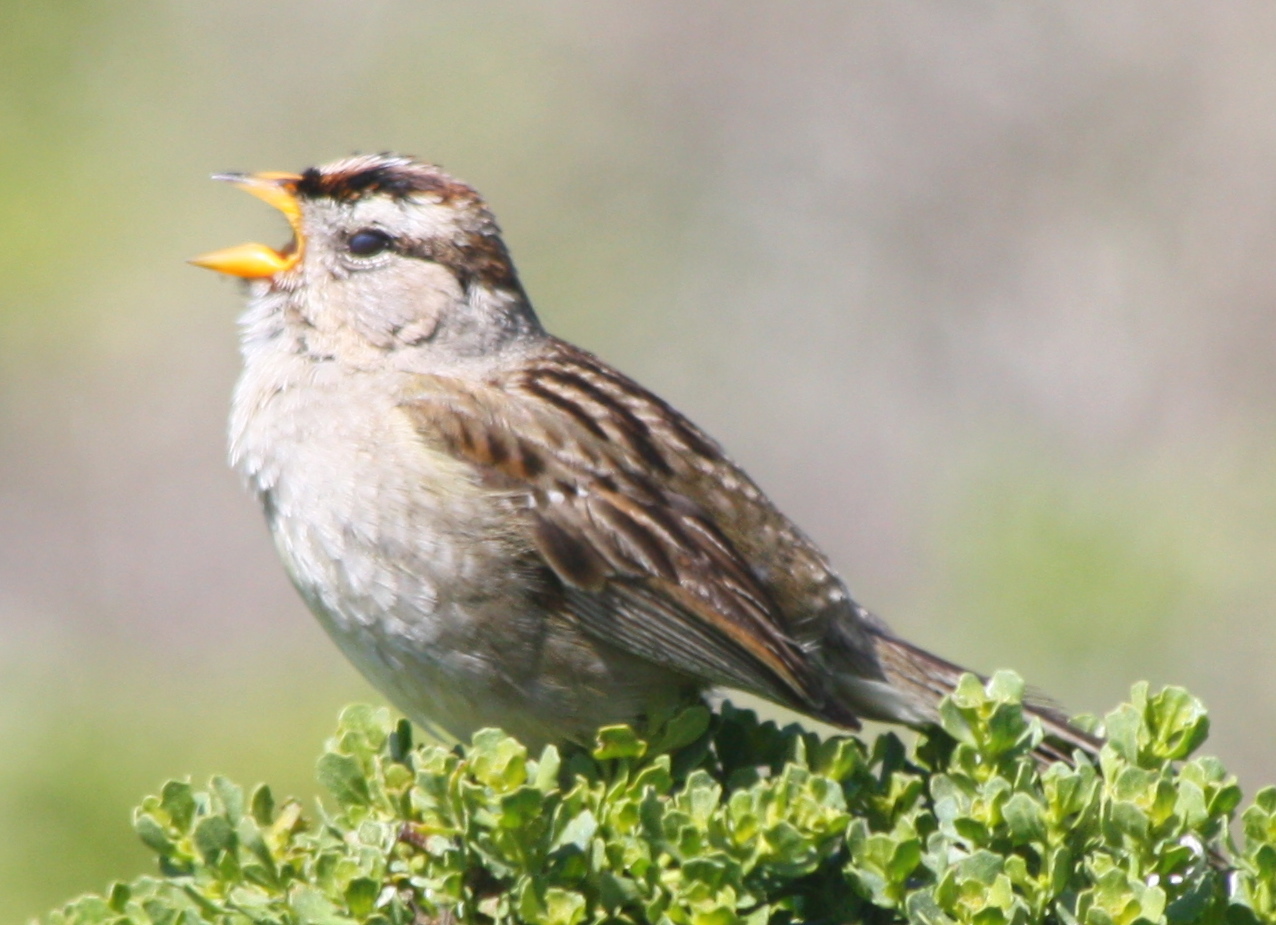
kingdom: Animalia
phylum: Chordata
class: Aves
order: Passeriformes
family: Passerellidae
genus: Zonotrichia
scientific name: Zonotrichia leucophrys
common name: White-crowned sparrow
